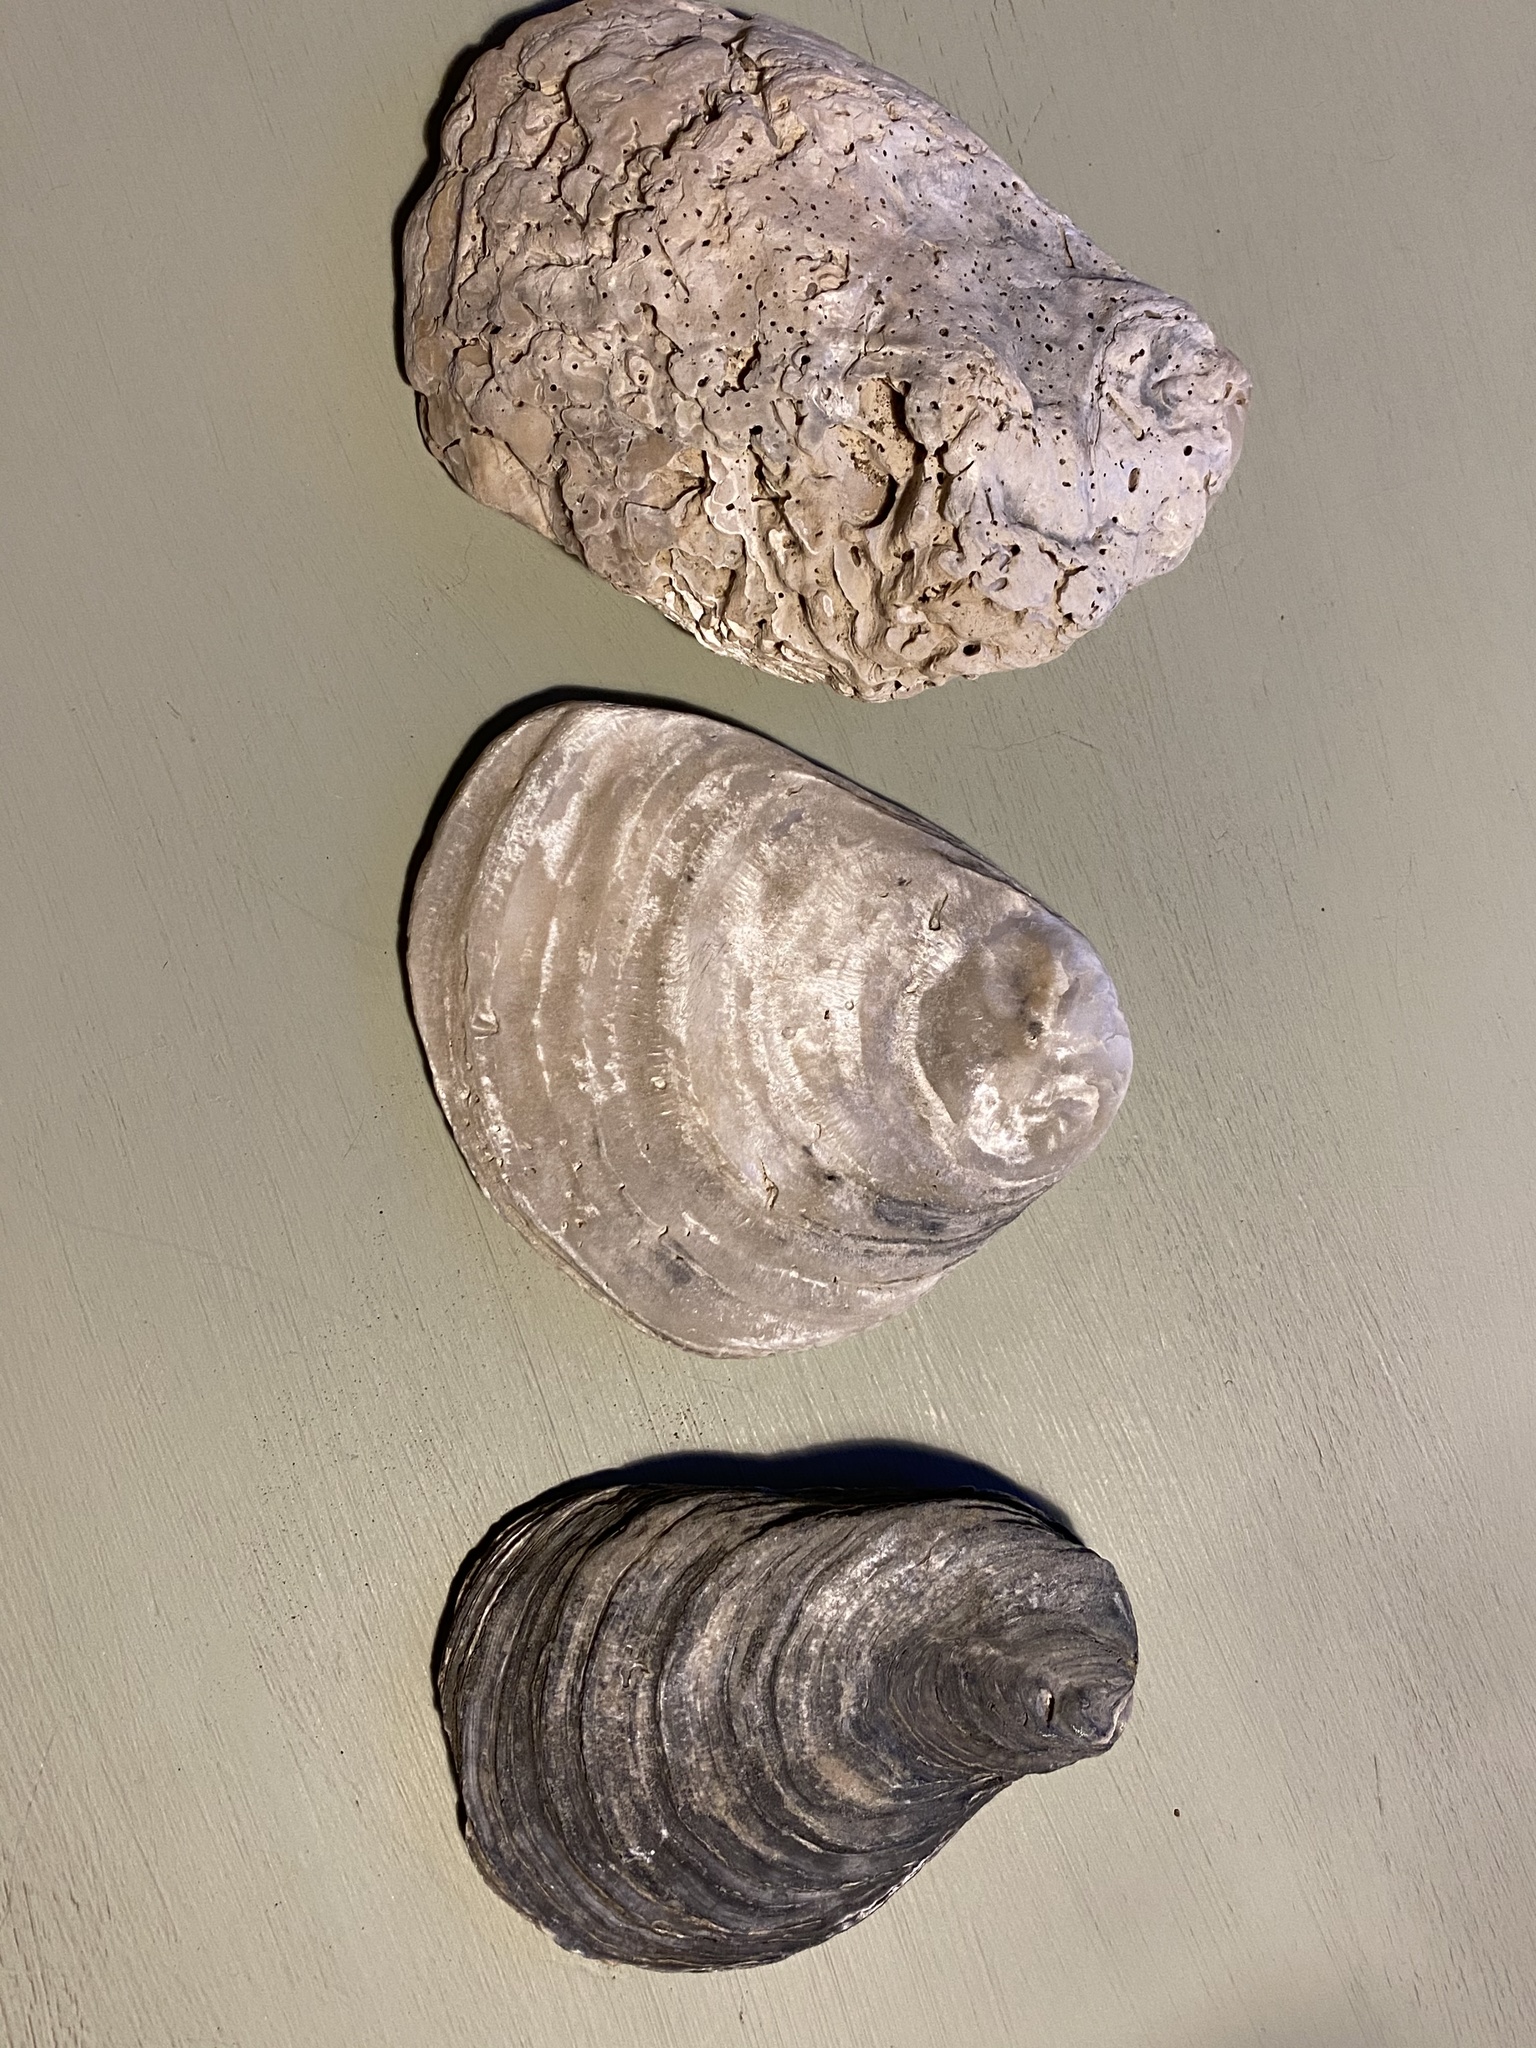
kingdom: Animalia
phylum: Mollusca
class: Bivalvia
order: Ostreida
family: Ostreidae
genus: Ostrea
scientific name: Ostrea edulis
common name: Flat oyster
